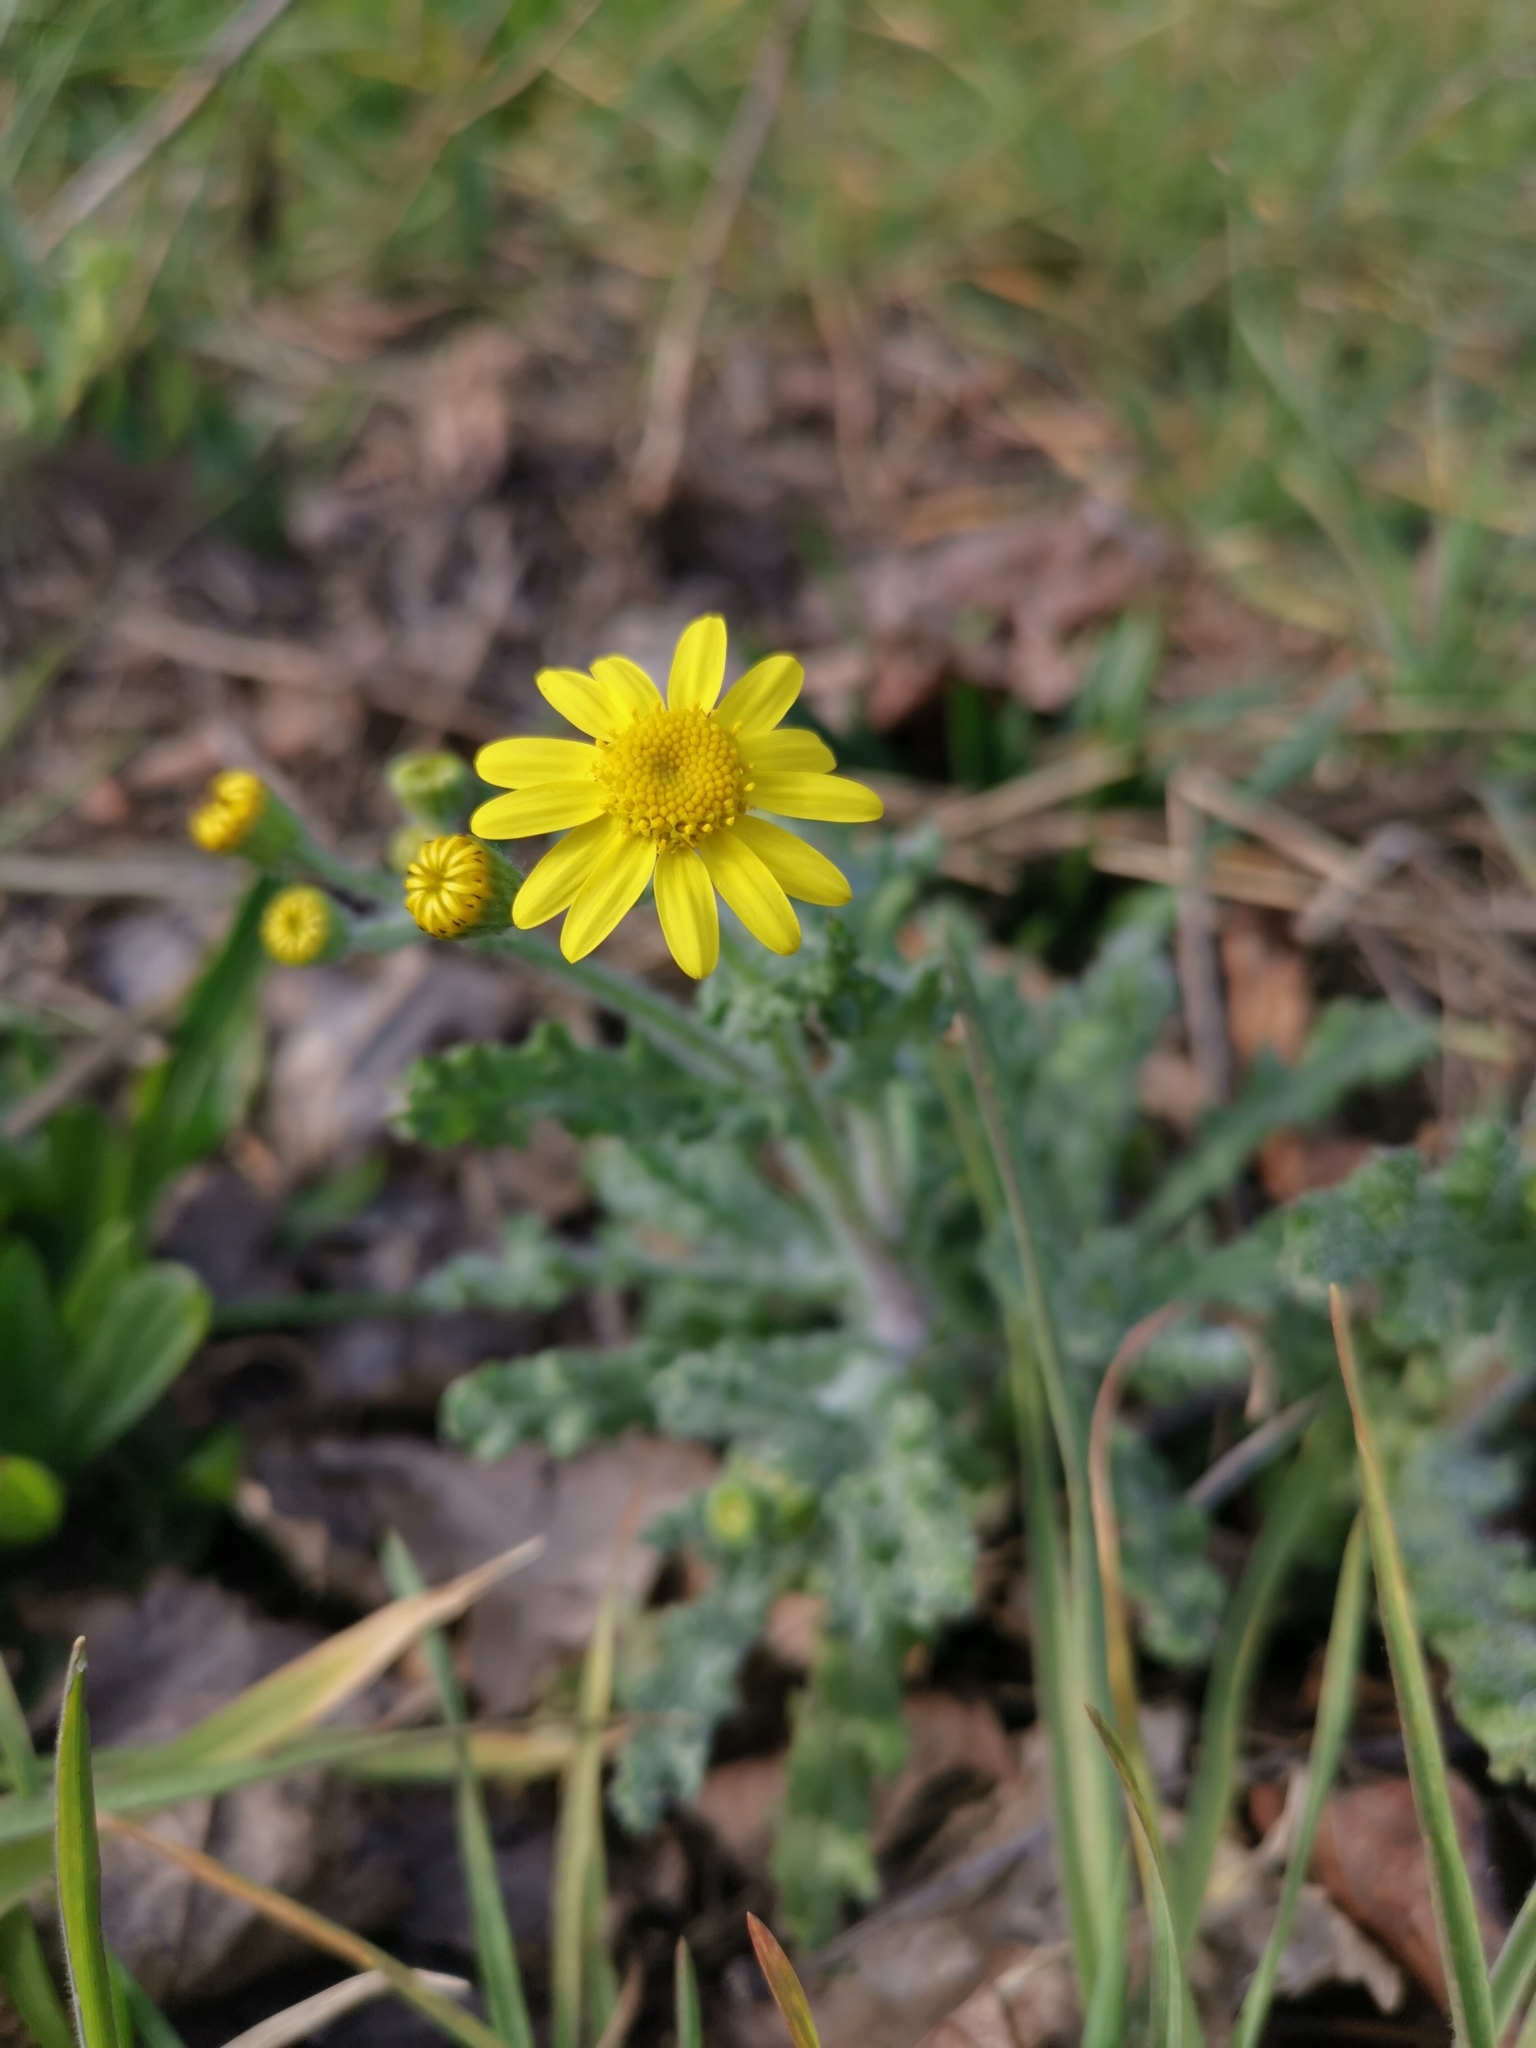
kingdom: Plantae
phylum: Tracheophyta
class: Magnoliopsida
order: Asterales
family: Asteraceae
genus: Senecio
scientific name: Senecio vernalis
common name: Eastern groundsel
